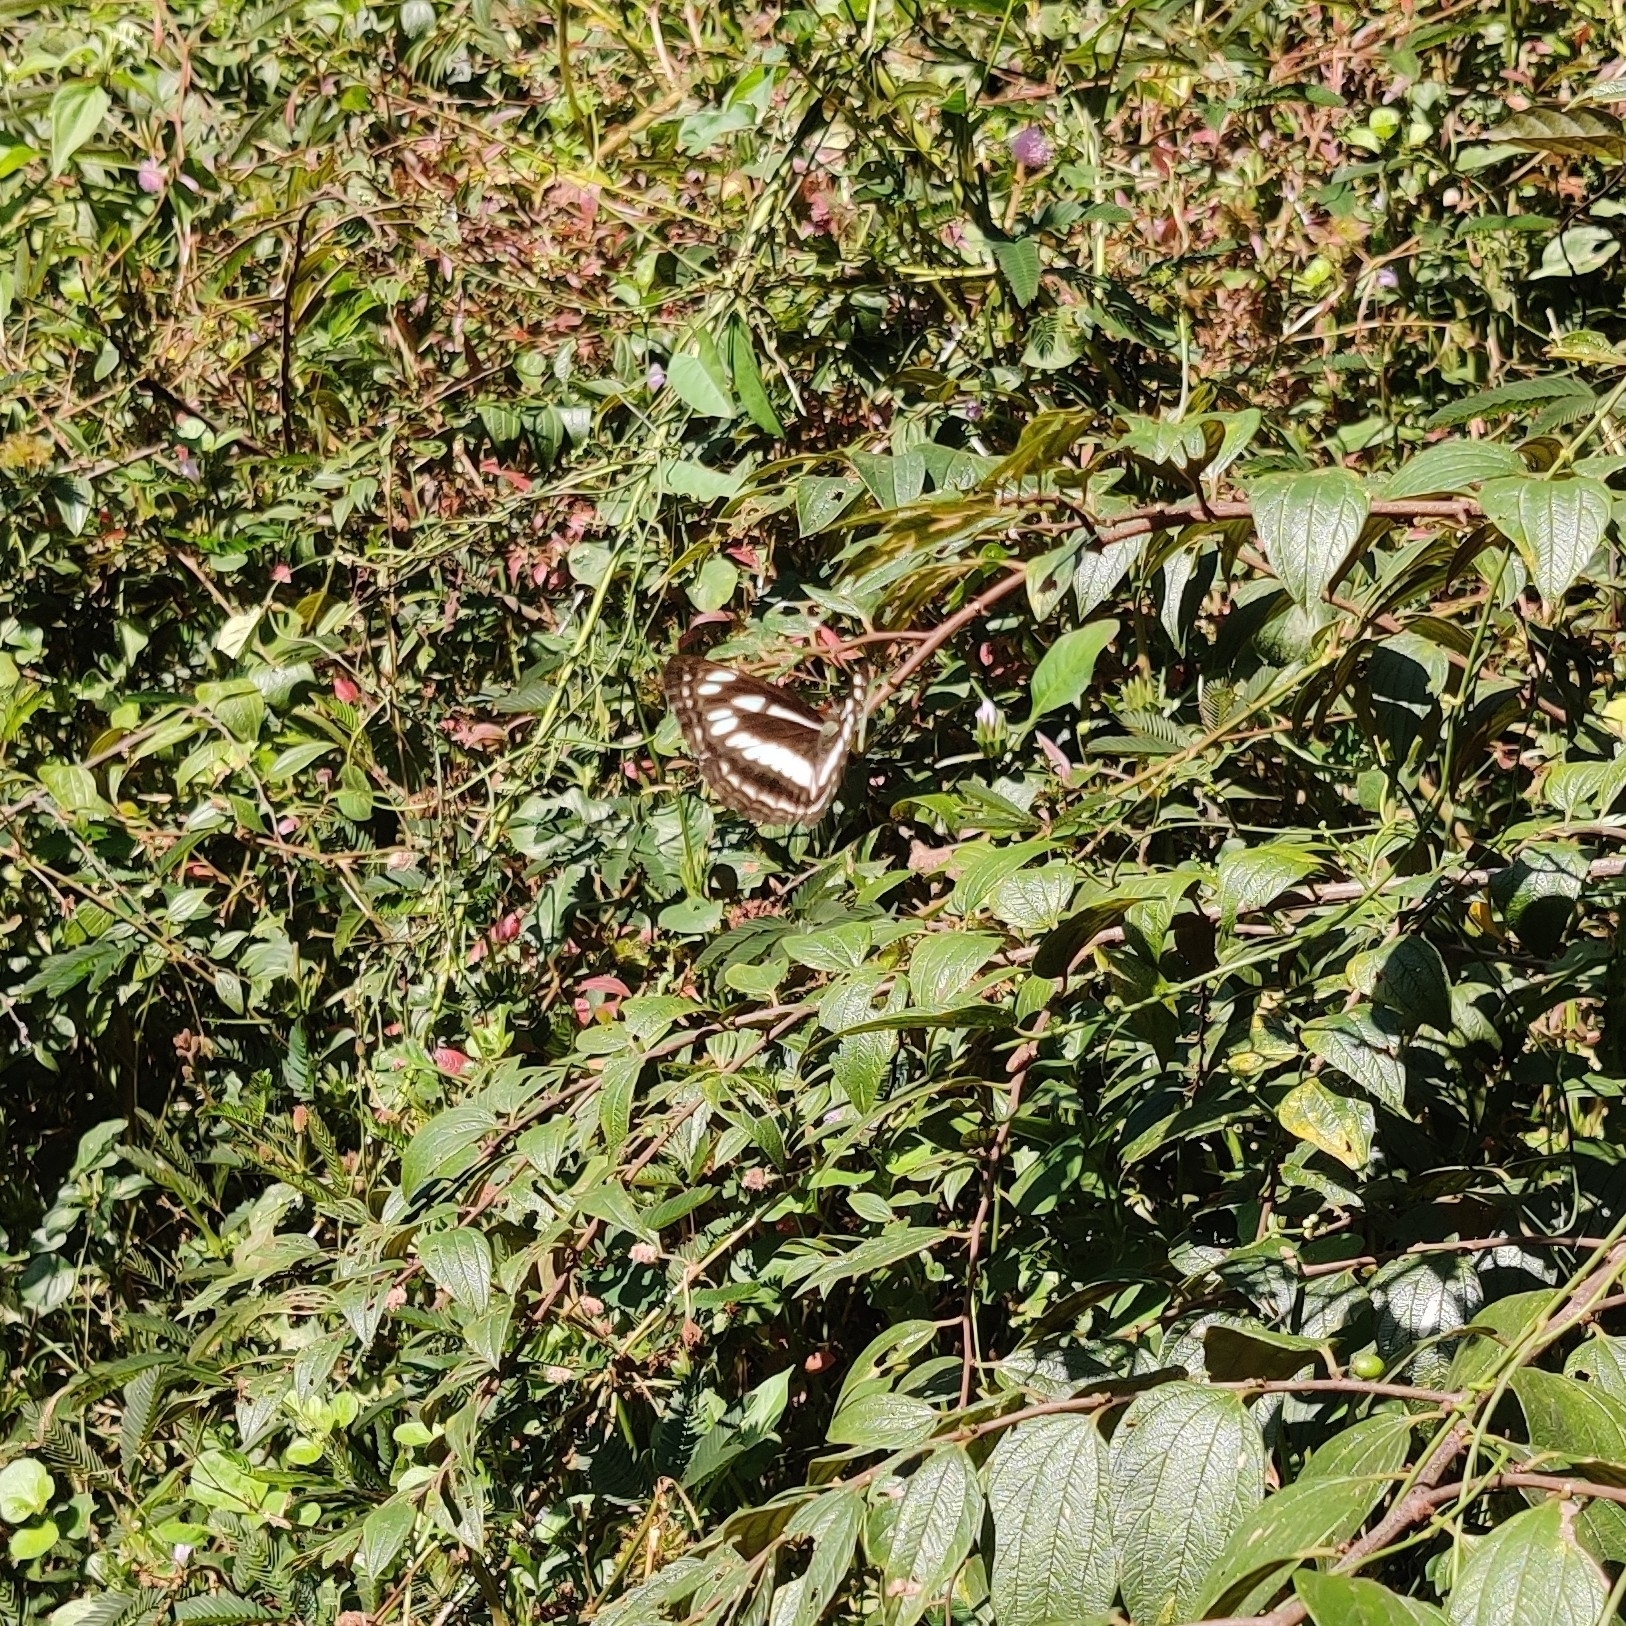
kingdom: Animalia
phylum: Arthropoda
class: Insecta
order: Lepidoptera
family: Nymphalidae
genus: Neptis
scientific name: Neptis hylas
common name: Common sailer
